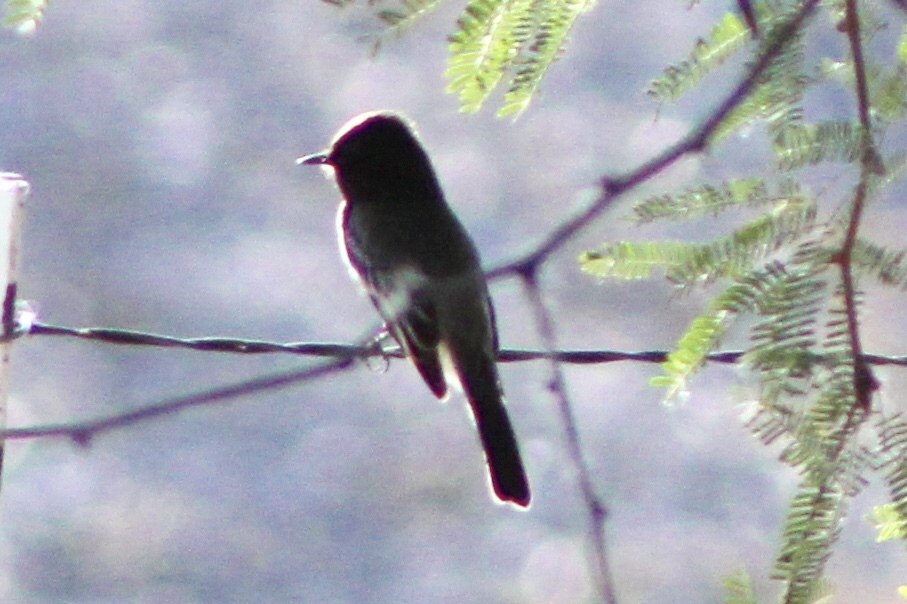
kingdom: Animalia
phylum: Chordata
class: Aves
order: Passeriformes
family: Tyrannidae
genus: Sayornis
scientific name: Sayornis nigricans
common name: Black phoebe
